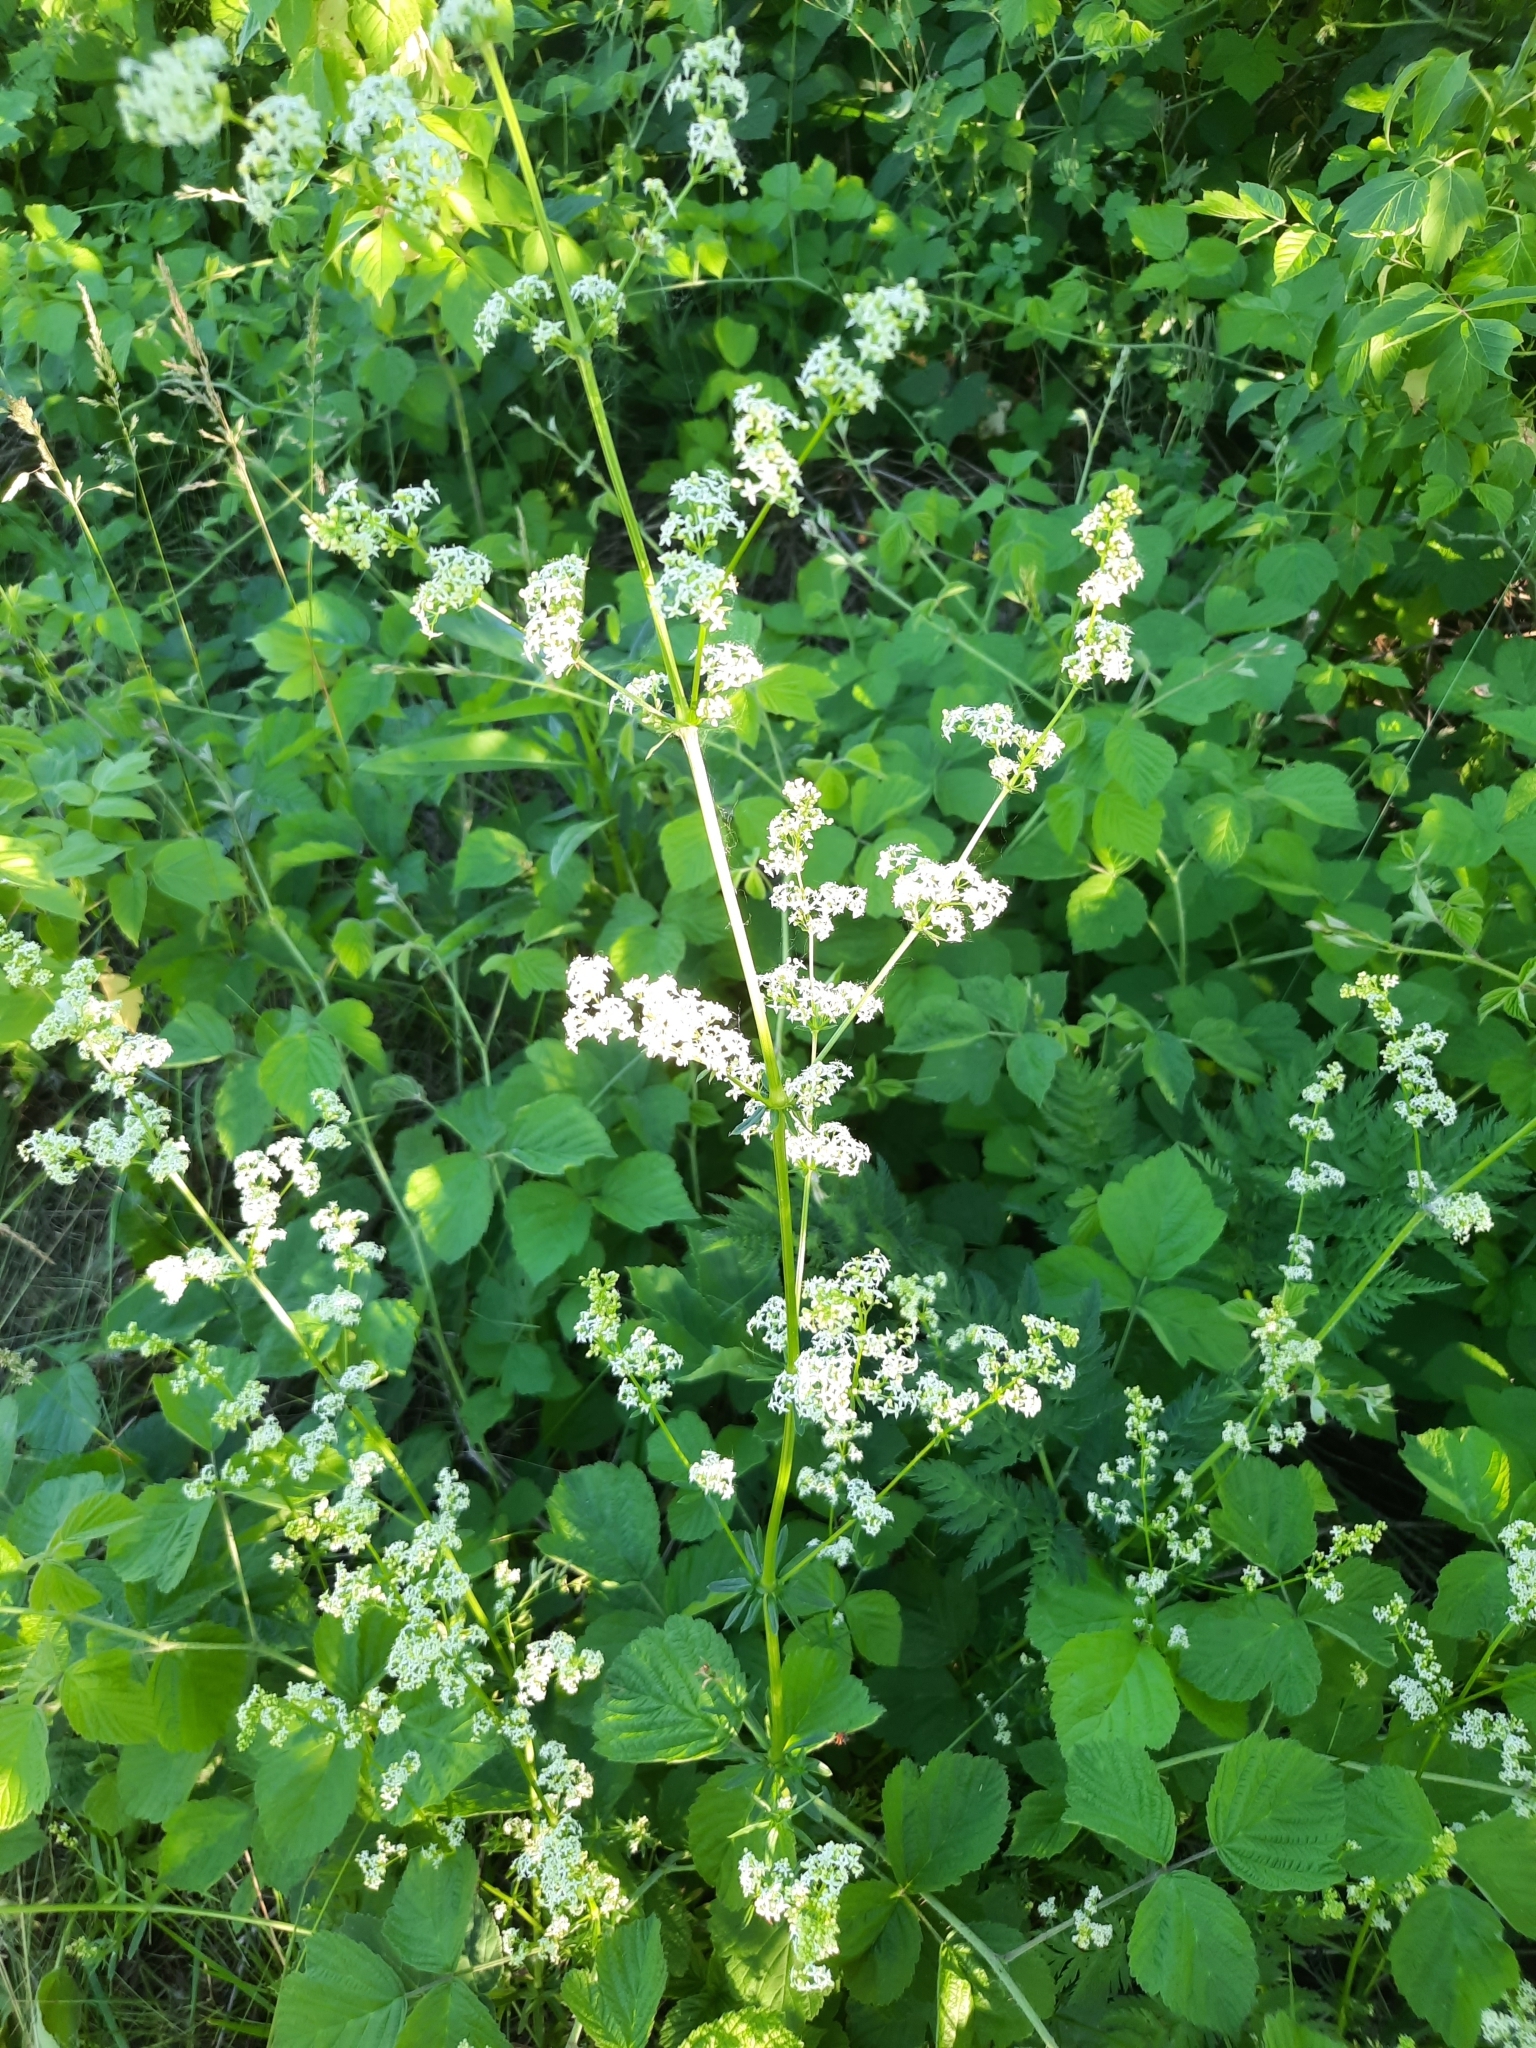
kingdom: Plantae
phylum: Tracheophyta
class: Magnoliopsida
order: Gentianales
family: Rubiaceae
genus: Galium
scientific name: Galium mollugo
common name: Hedge bedstraw
